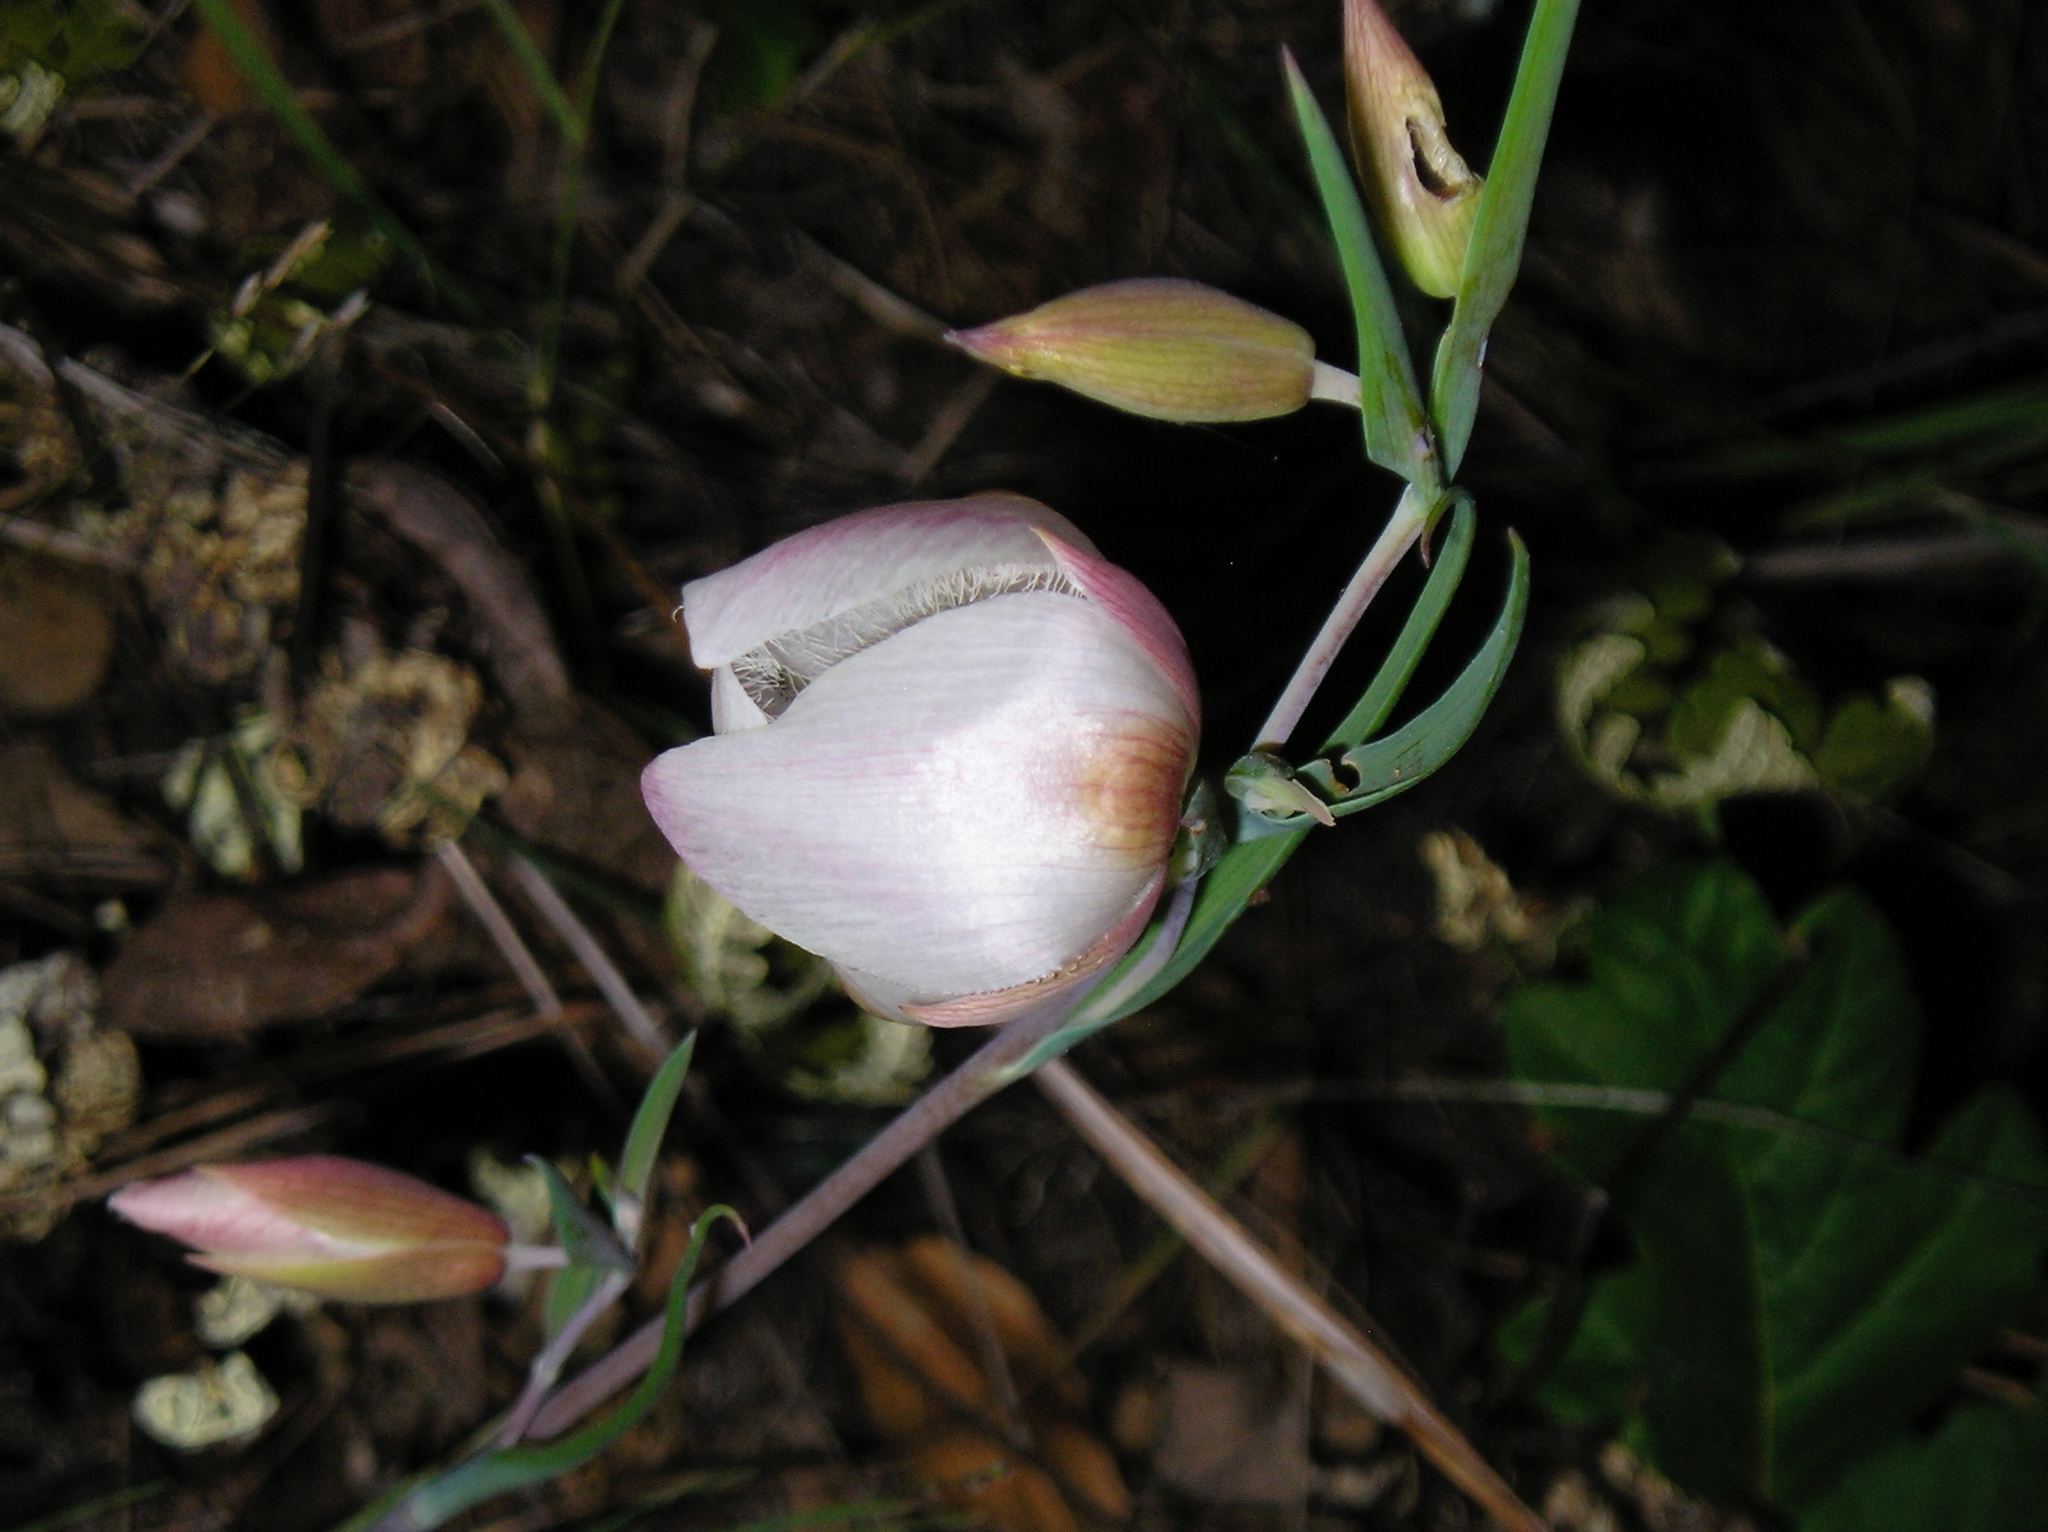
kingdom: Plantae
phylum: Tracheophyta
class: Liliopsida
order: Liliales
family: Liliaceae
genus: Calochortus
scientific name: Calochortus albus
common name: Fairy-lantern
